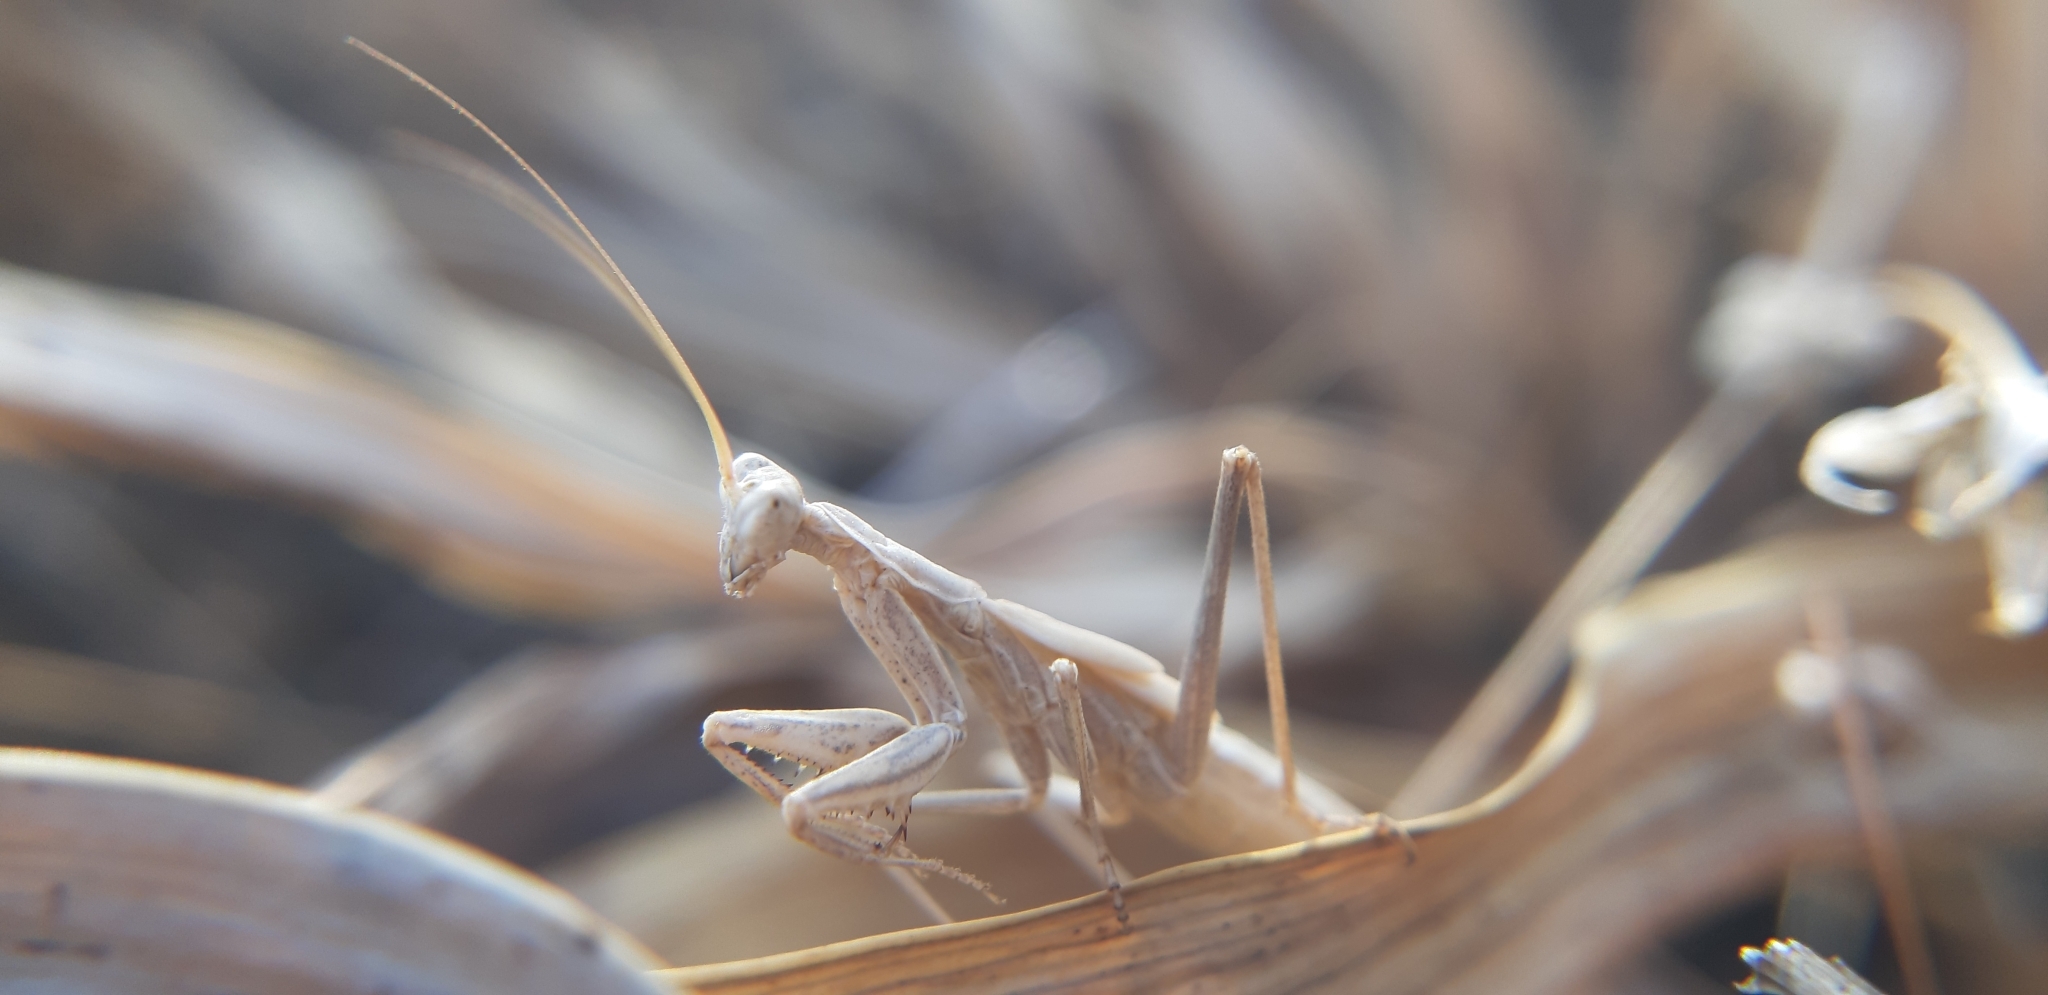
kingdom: Animalia
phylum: Arthropoda
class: Insecta
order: Mantodea
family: Amelidae
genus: Ameles
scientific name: Ameles decolor
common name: Dwarf mantis
